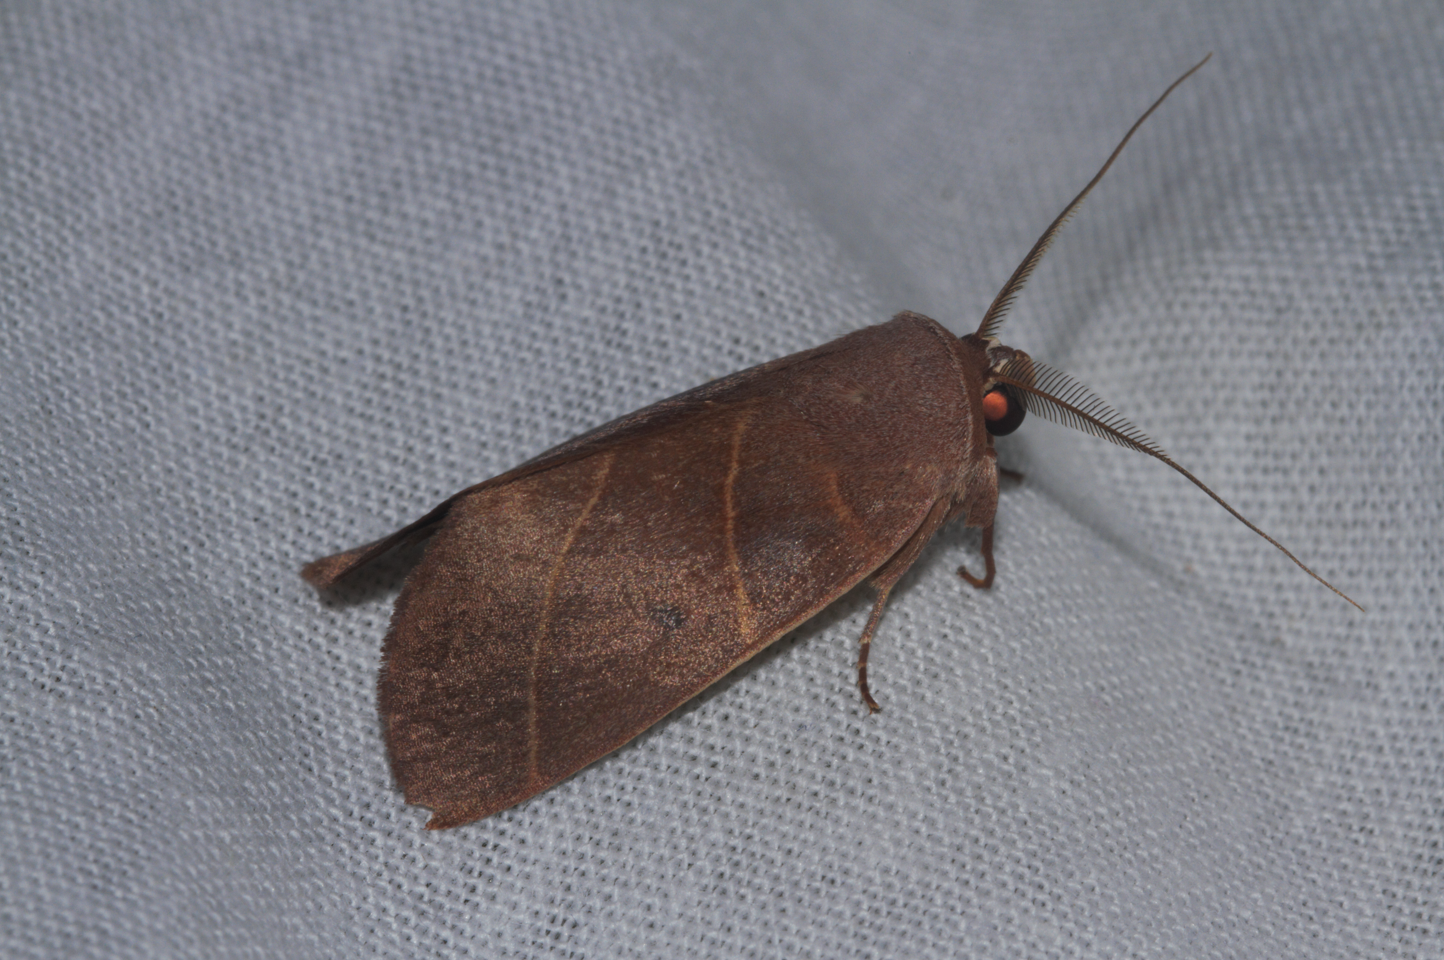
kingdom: Animalia
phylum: Arthropoda
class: Insecta
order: Lepidoptera
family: Notodontidae
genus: Hemiceras
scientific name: Hemiceras plana
